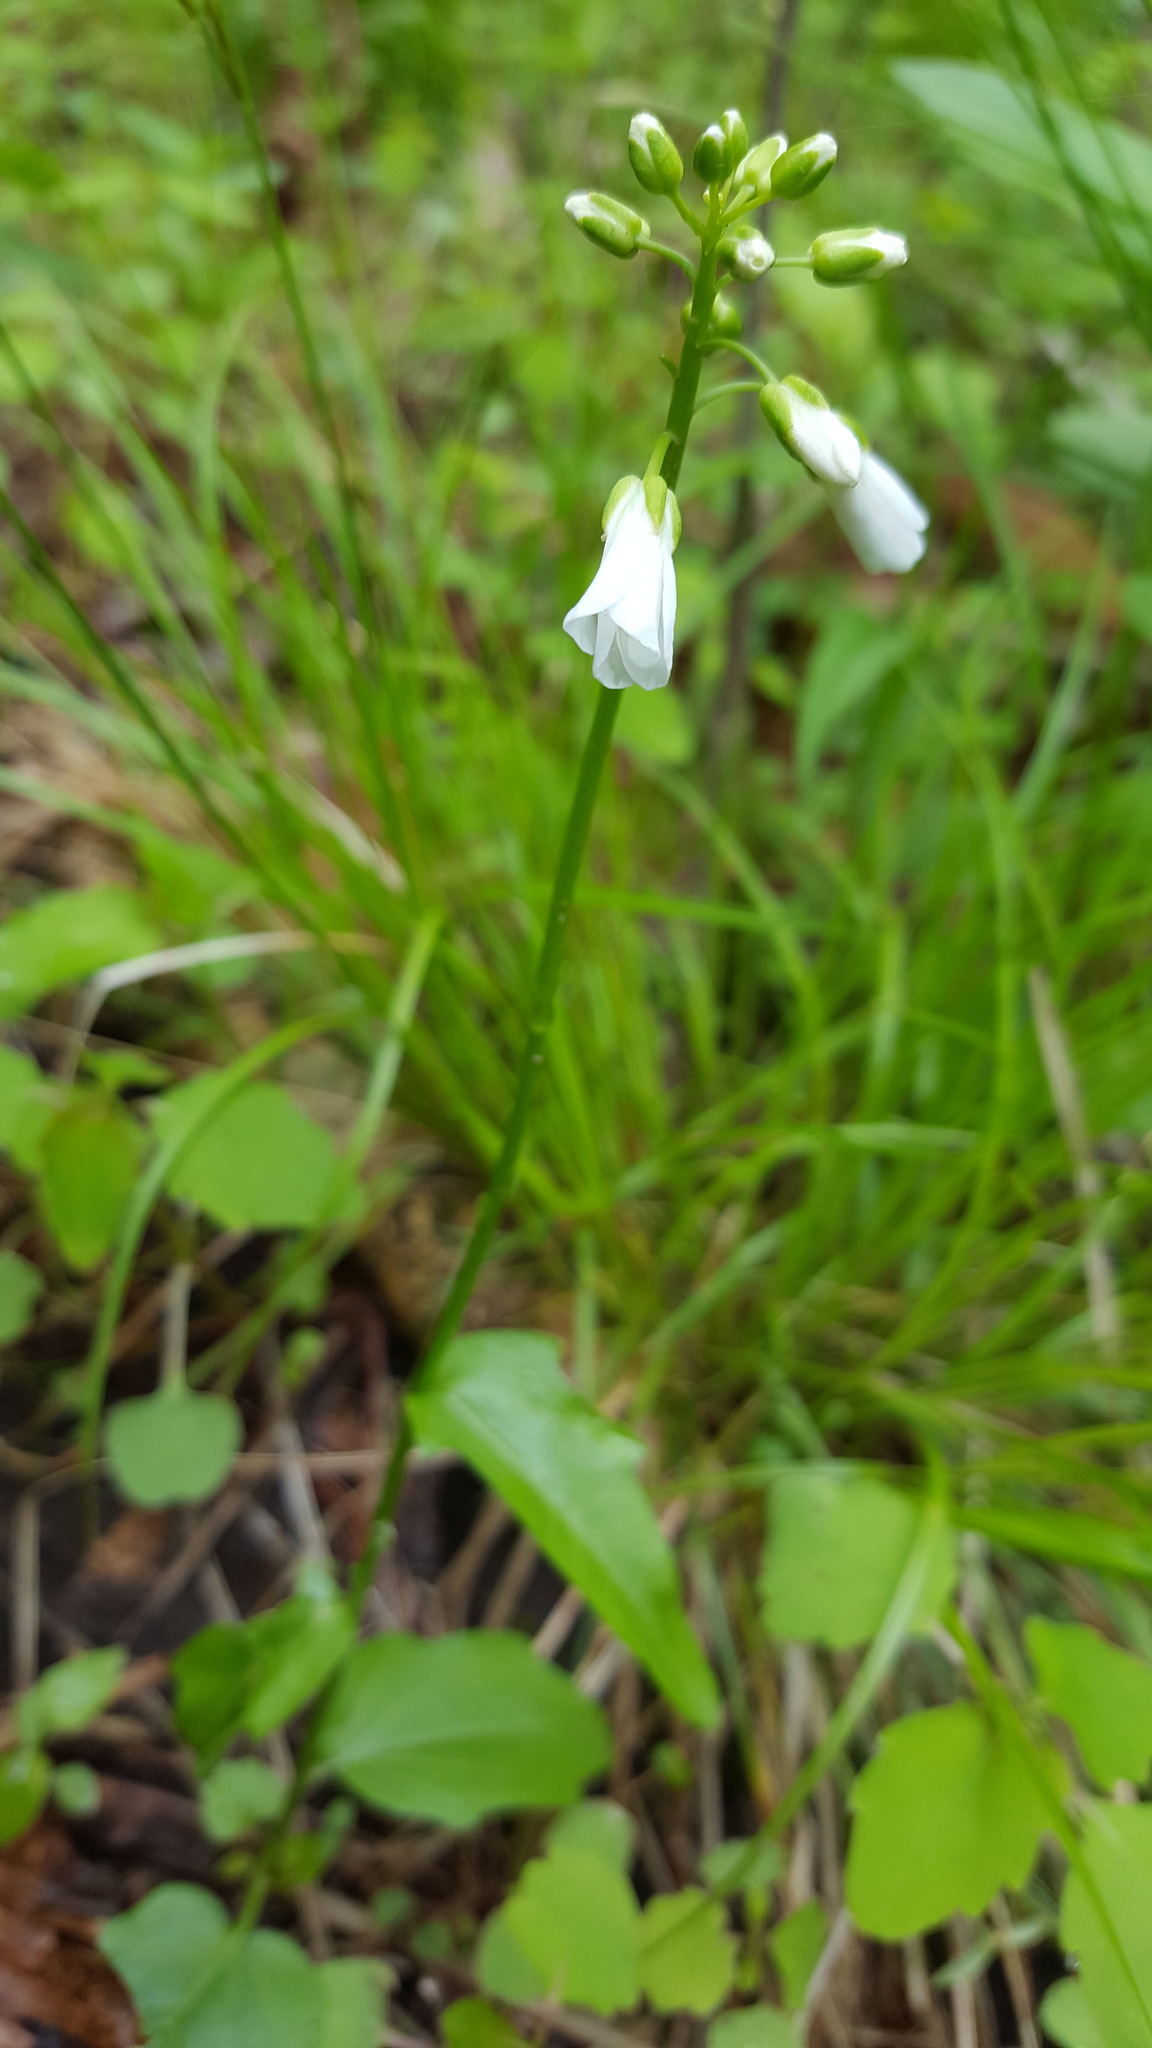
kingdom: Plantae
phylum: Tracheophyta
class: Magnoliopsida
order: Brassicales
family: Brassicaceae
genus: Cardamine
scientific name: Cardamine bulbosa
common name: Spring cress
